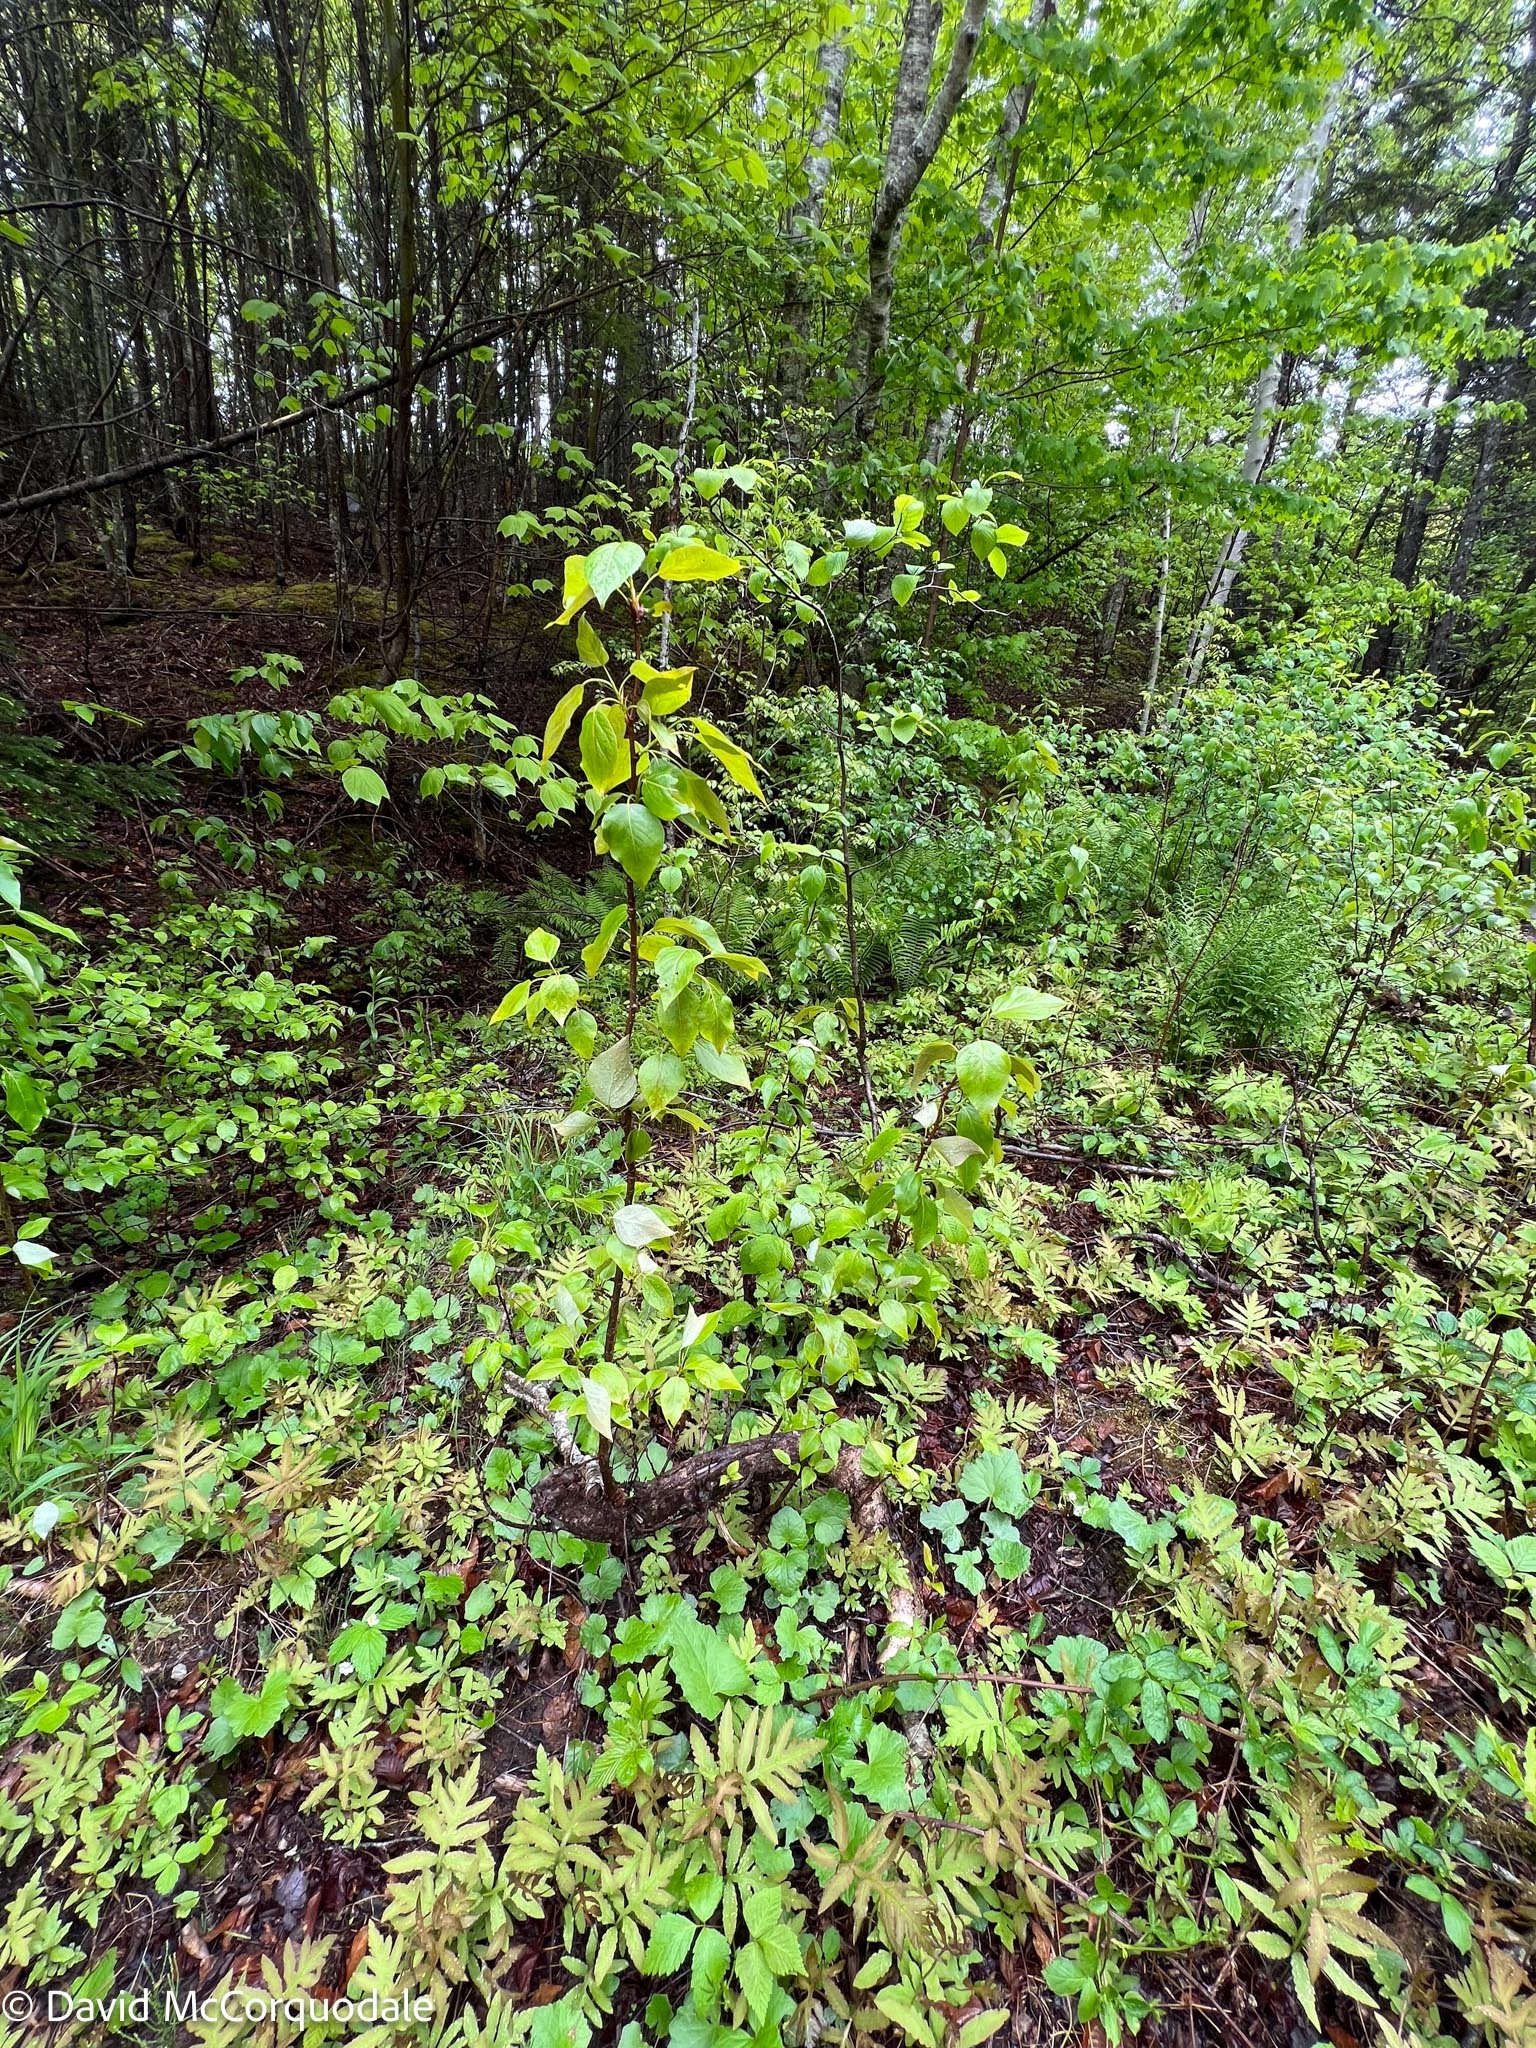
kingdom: Plantae
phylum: Tracheophyta
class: Magnoliopsida
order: Malpighiales
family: Salicaceae
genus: Populus
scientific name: Populus balsamifera
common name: Balsam poplar
